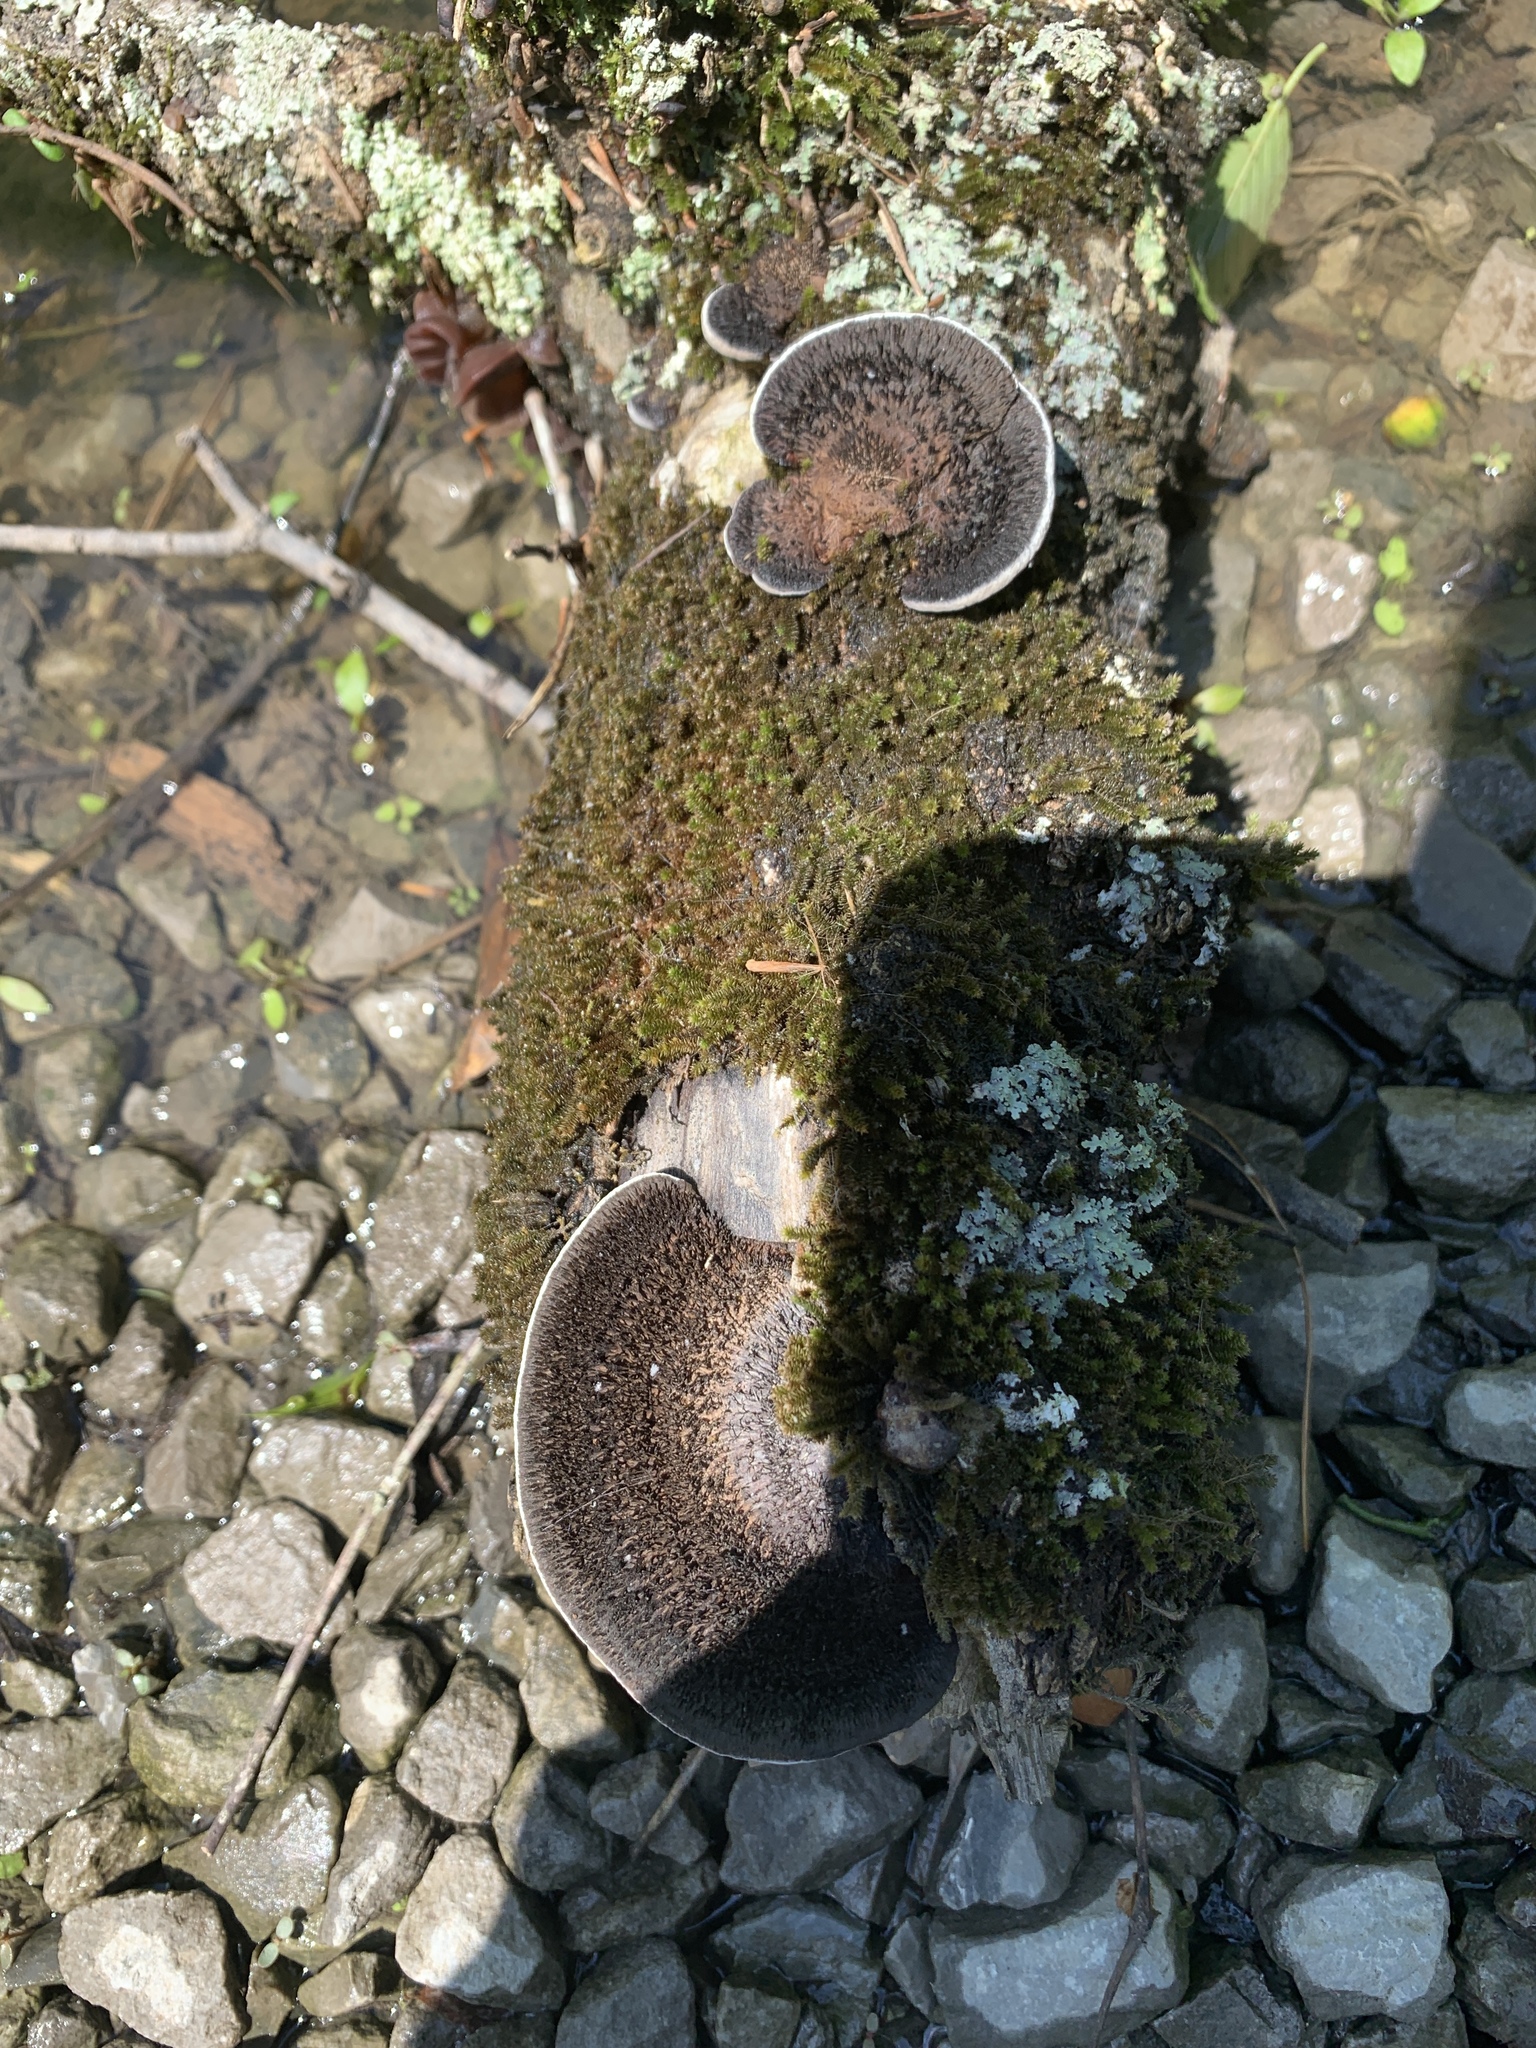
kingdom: Fungi
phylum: Basidiomycota
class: Agaricomycetes
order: Polyporales
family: Cerrenaceae
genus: Cerrena
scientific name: Cerrena hydnoides
